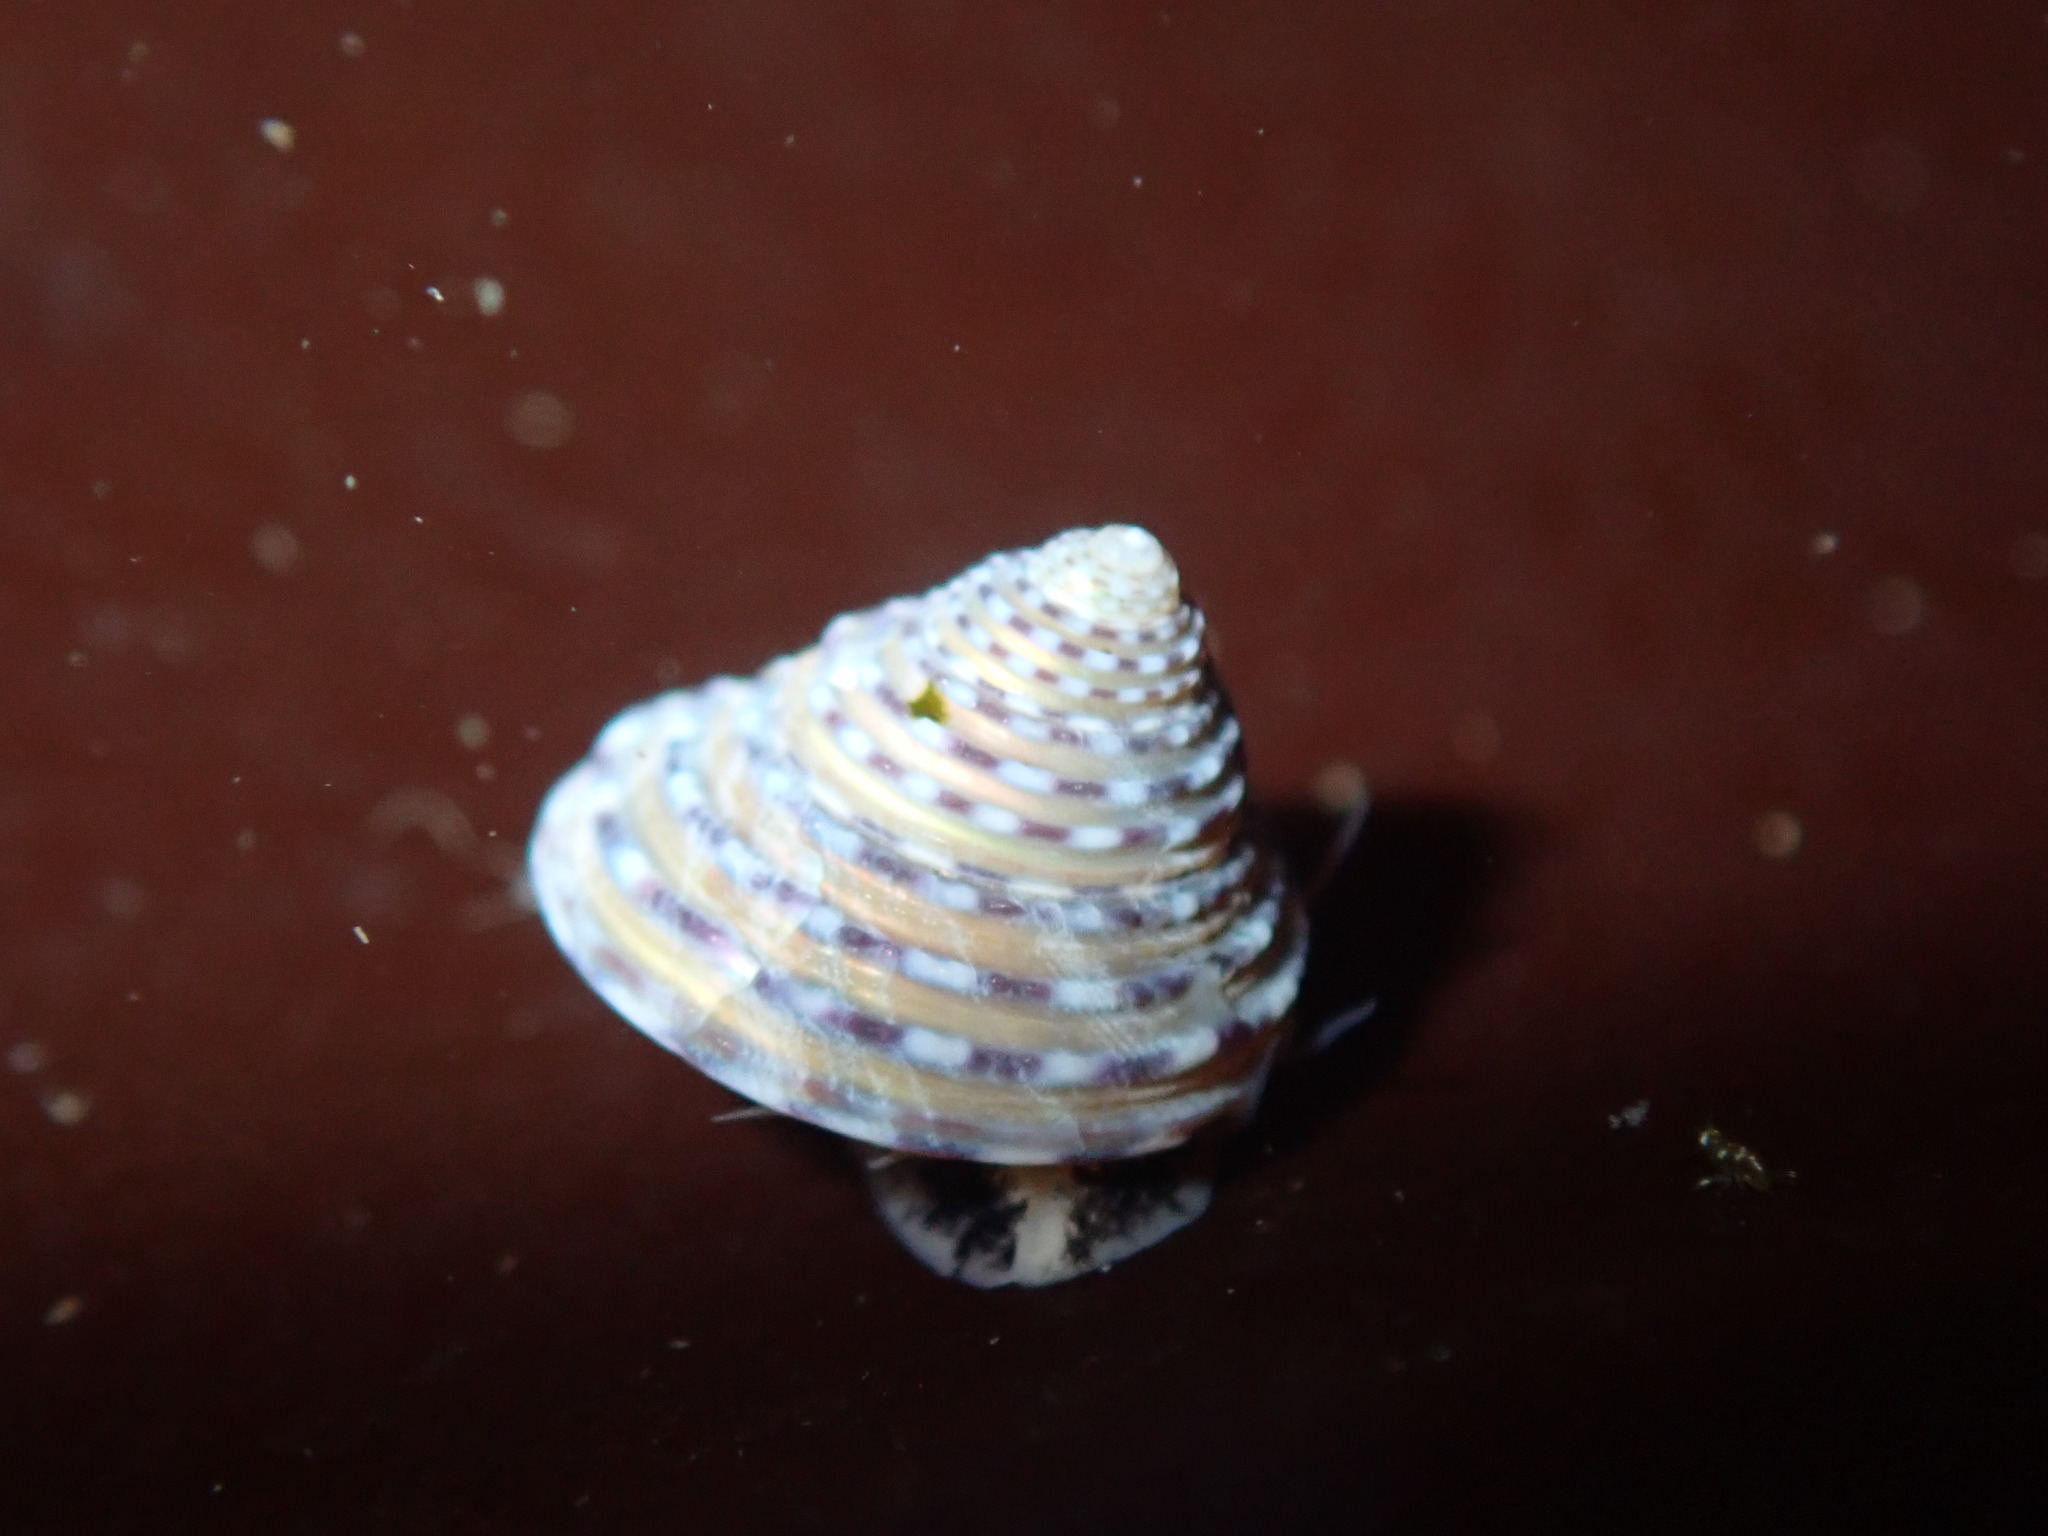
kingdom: Animalia
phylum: Mollusca
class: Gastropoda
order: Trochida
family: Calliostomatidae
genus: Calliostoma
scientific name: Calliostoma tricolor
